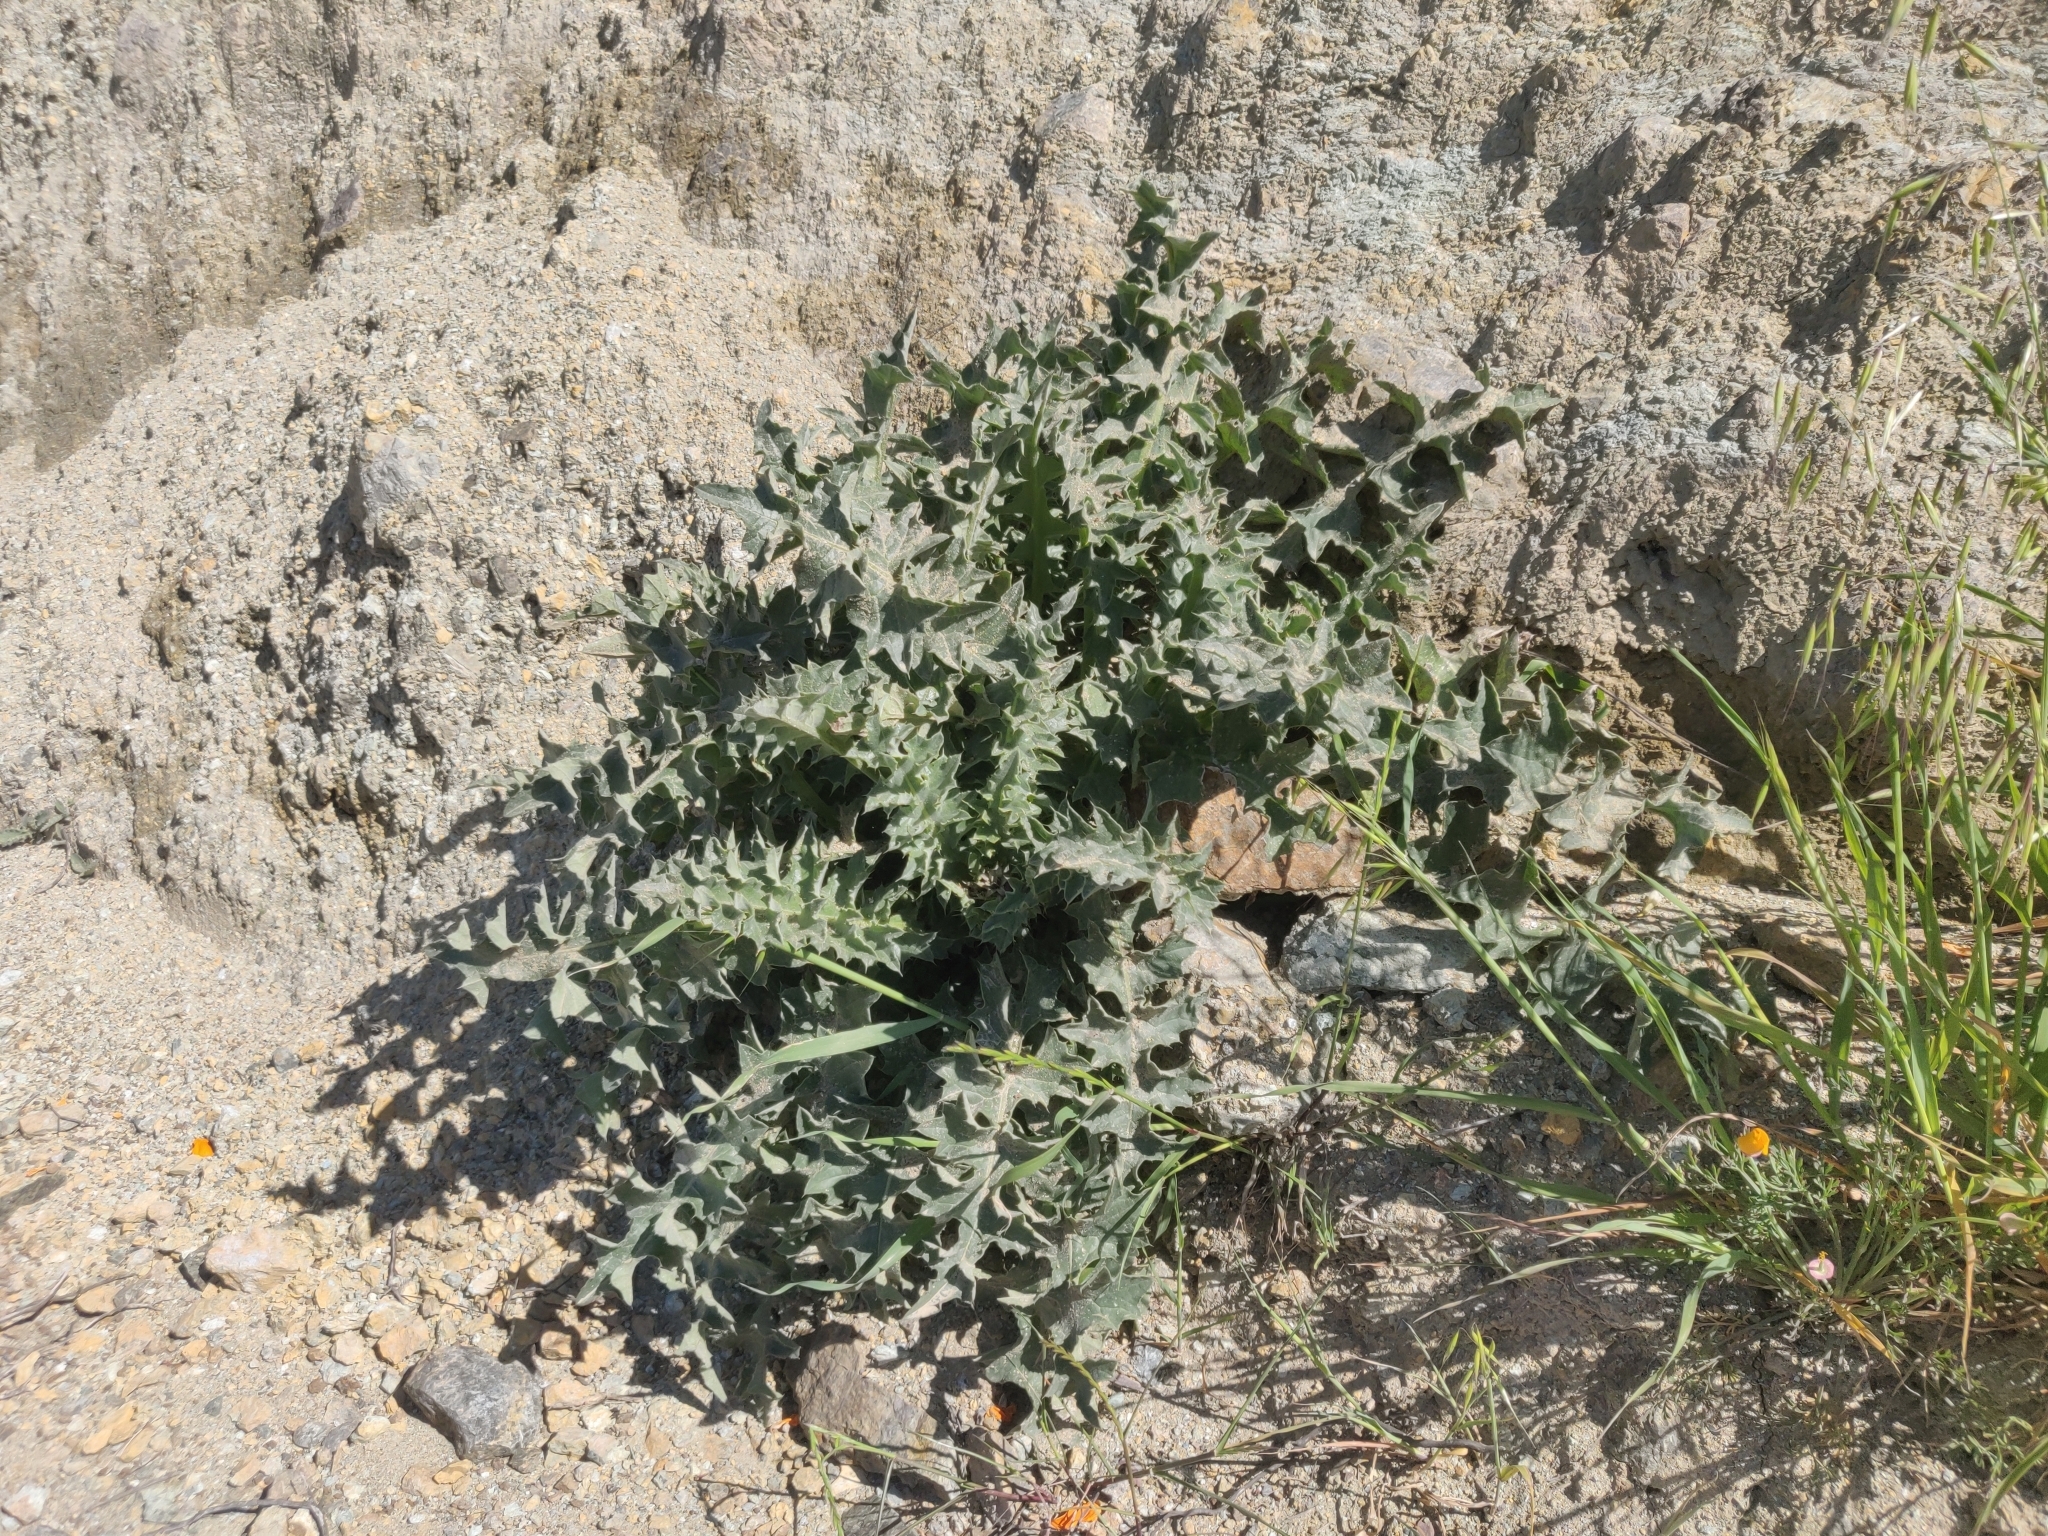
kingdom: Plantae
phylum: Tracheophyta
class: Magnoliopsida
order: Asterales
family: Asteraceae
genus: Cirsium
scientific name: Cirsium fontinale
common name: Fountain thistle
